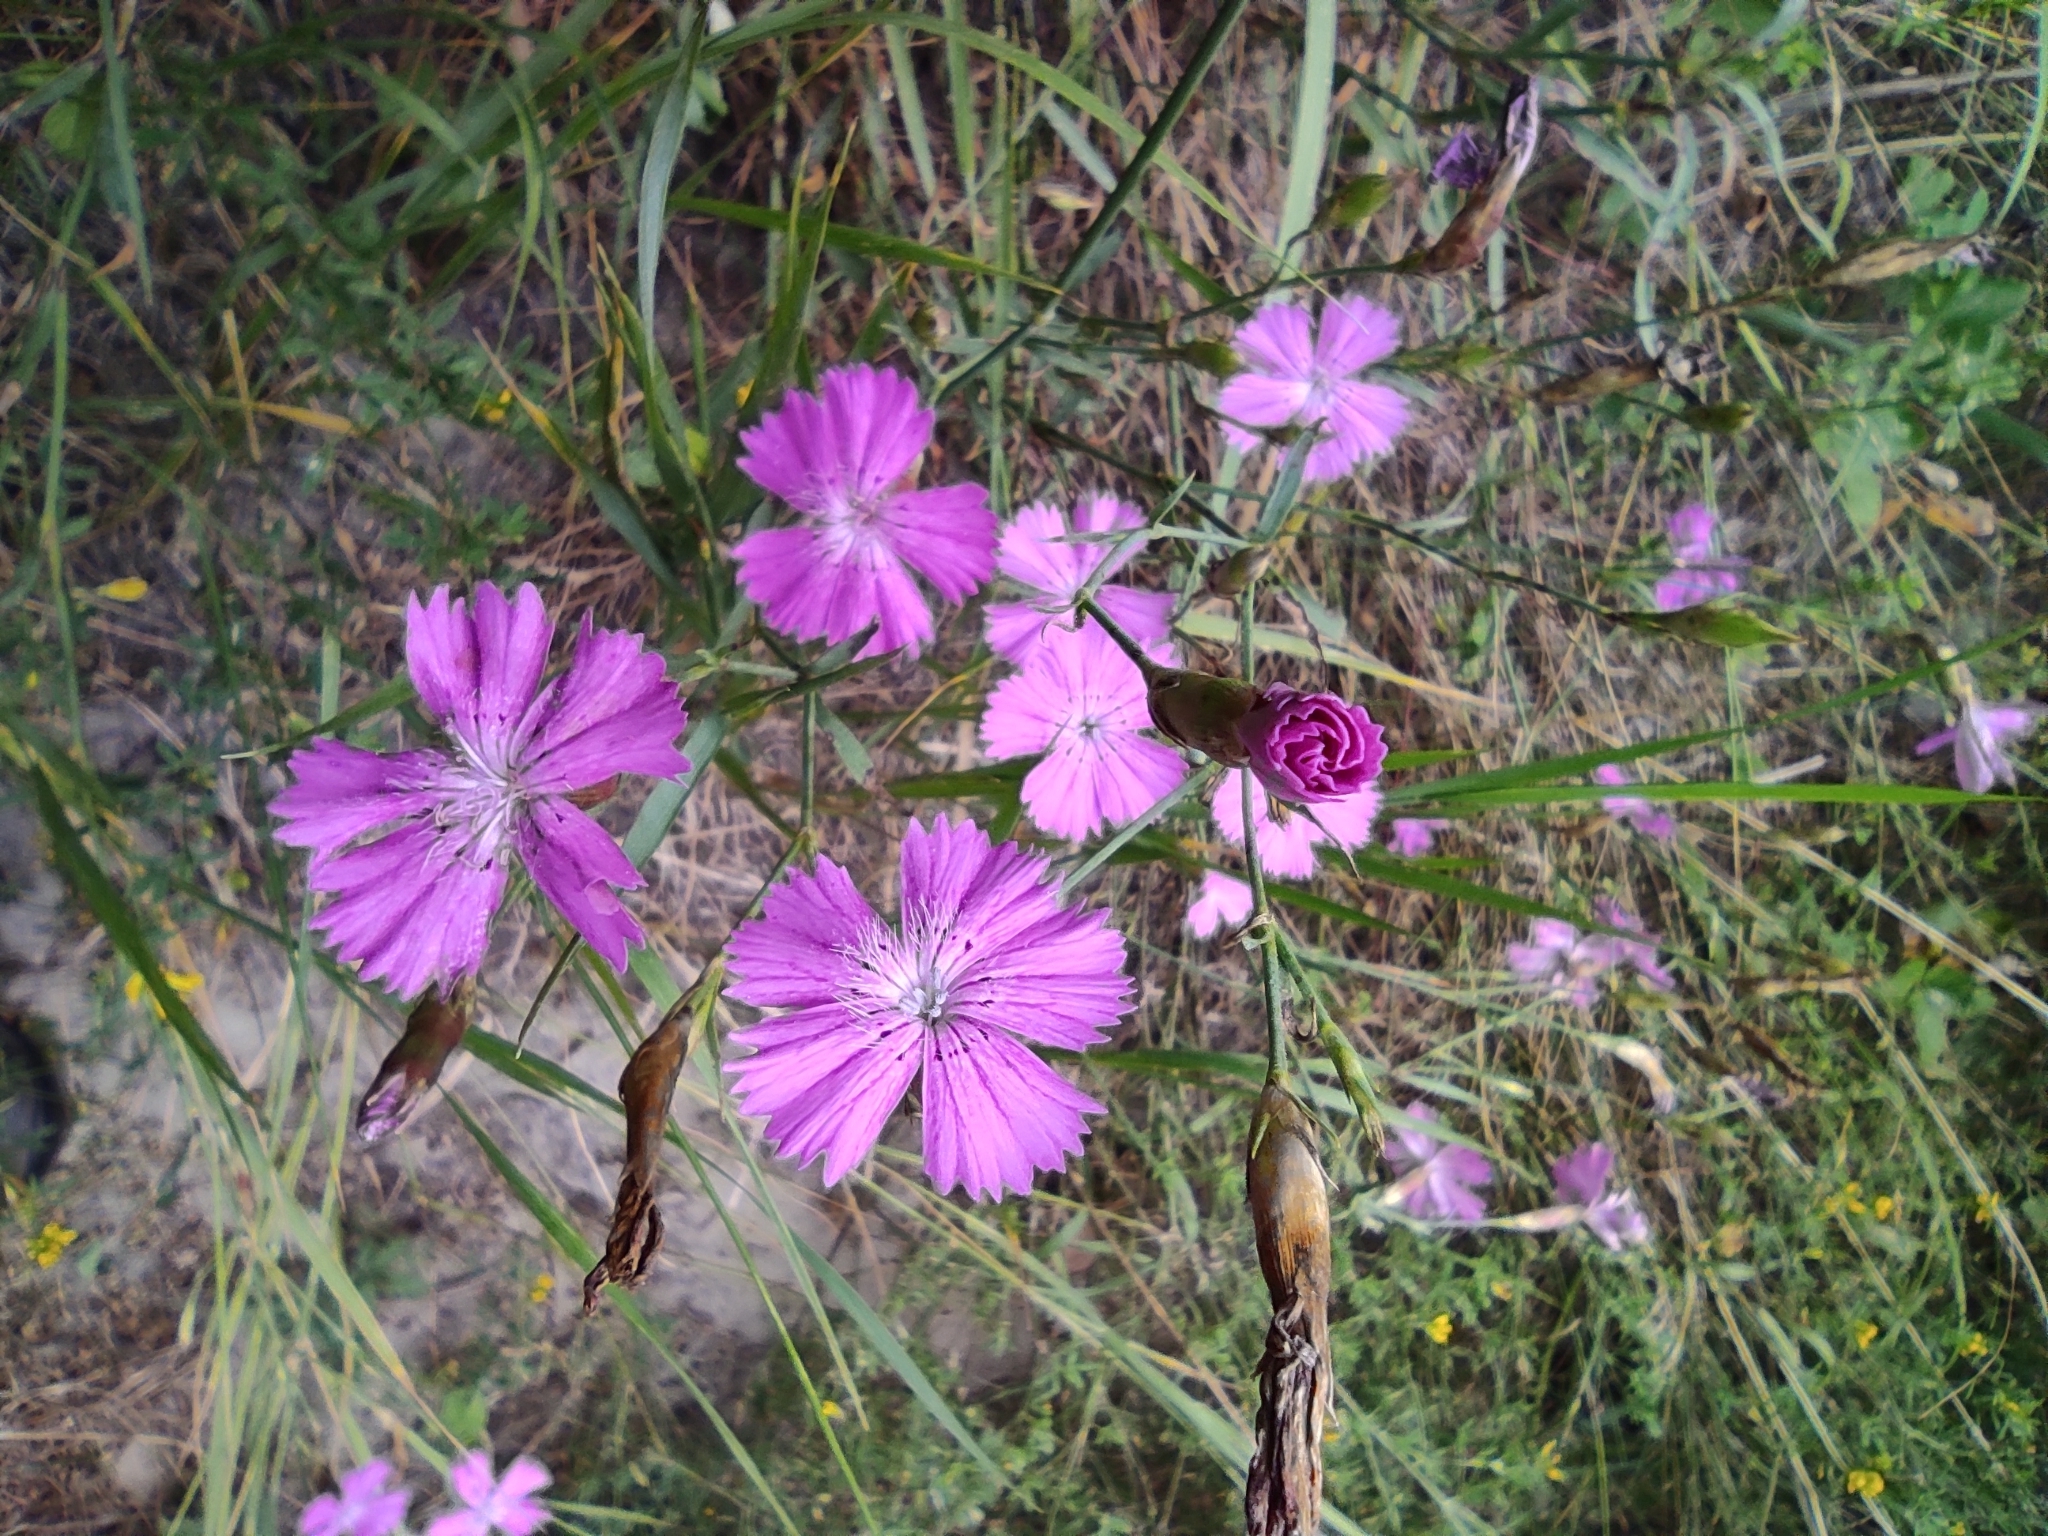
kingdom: Plantae
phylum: Tracheophyta
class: Magnoliopsida
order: Caryophyllales
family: Caryophyllaceae
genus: Dianthus
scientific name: Dianthus chinensis
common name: Rainbow pink
